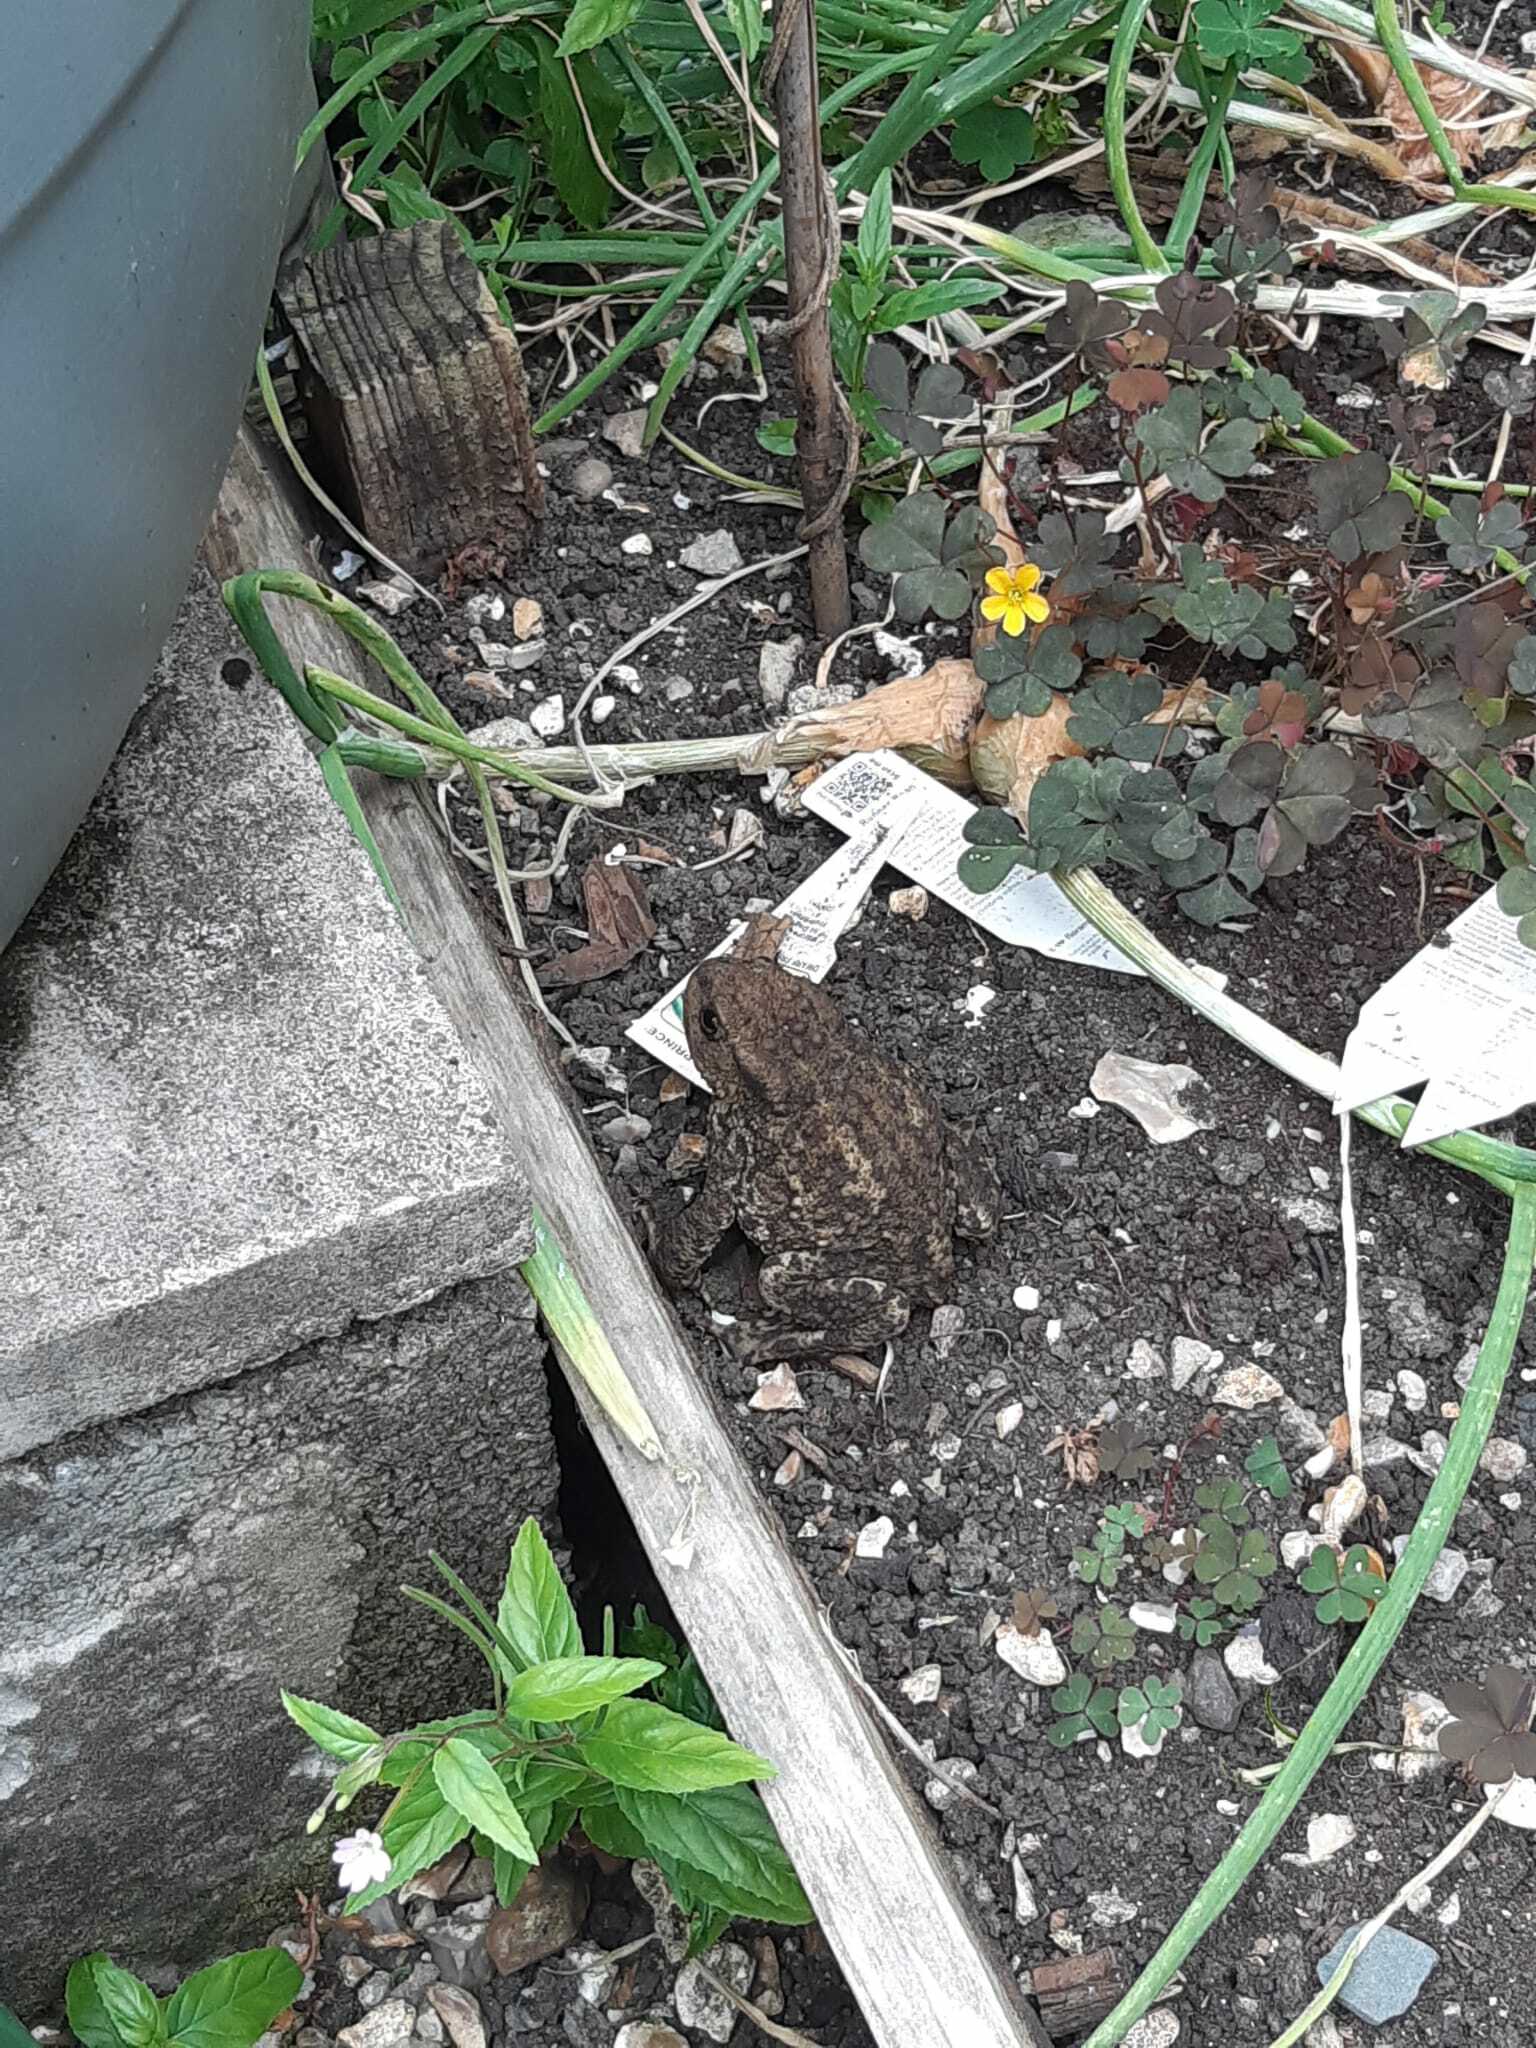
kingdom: Animalia
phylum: Chordata
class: Amphibia
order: Anura
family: Bufonidae
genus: Bufo
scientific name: Bufo bufo
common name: Common toad
